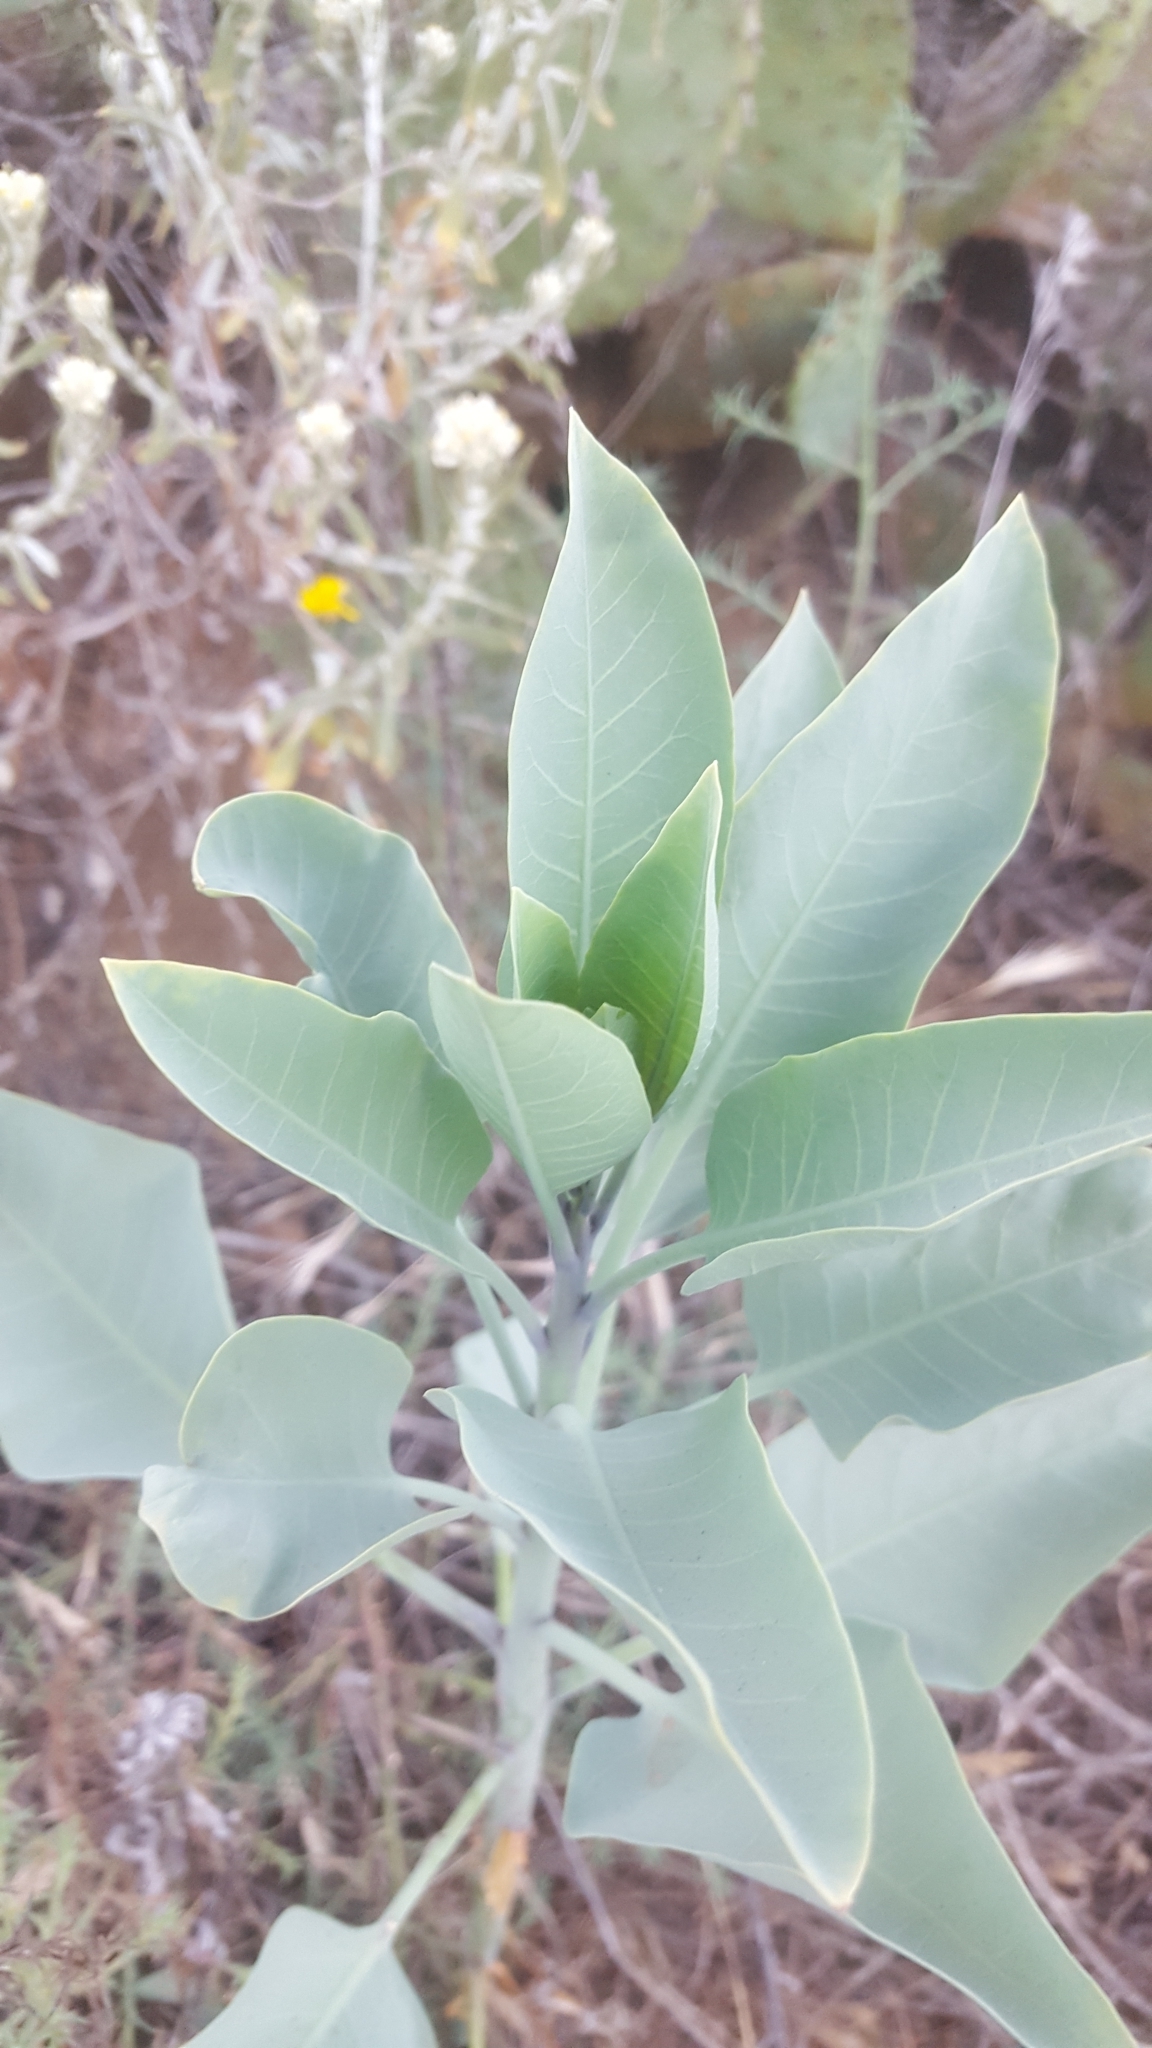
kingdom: Plantae
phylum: Tracheophyta
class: Magnoliopsida
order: Solanales
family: Solanaceae
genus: Nicotiana
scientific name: Nicotiana glauca
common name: Tree tobacco
